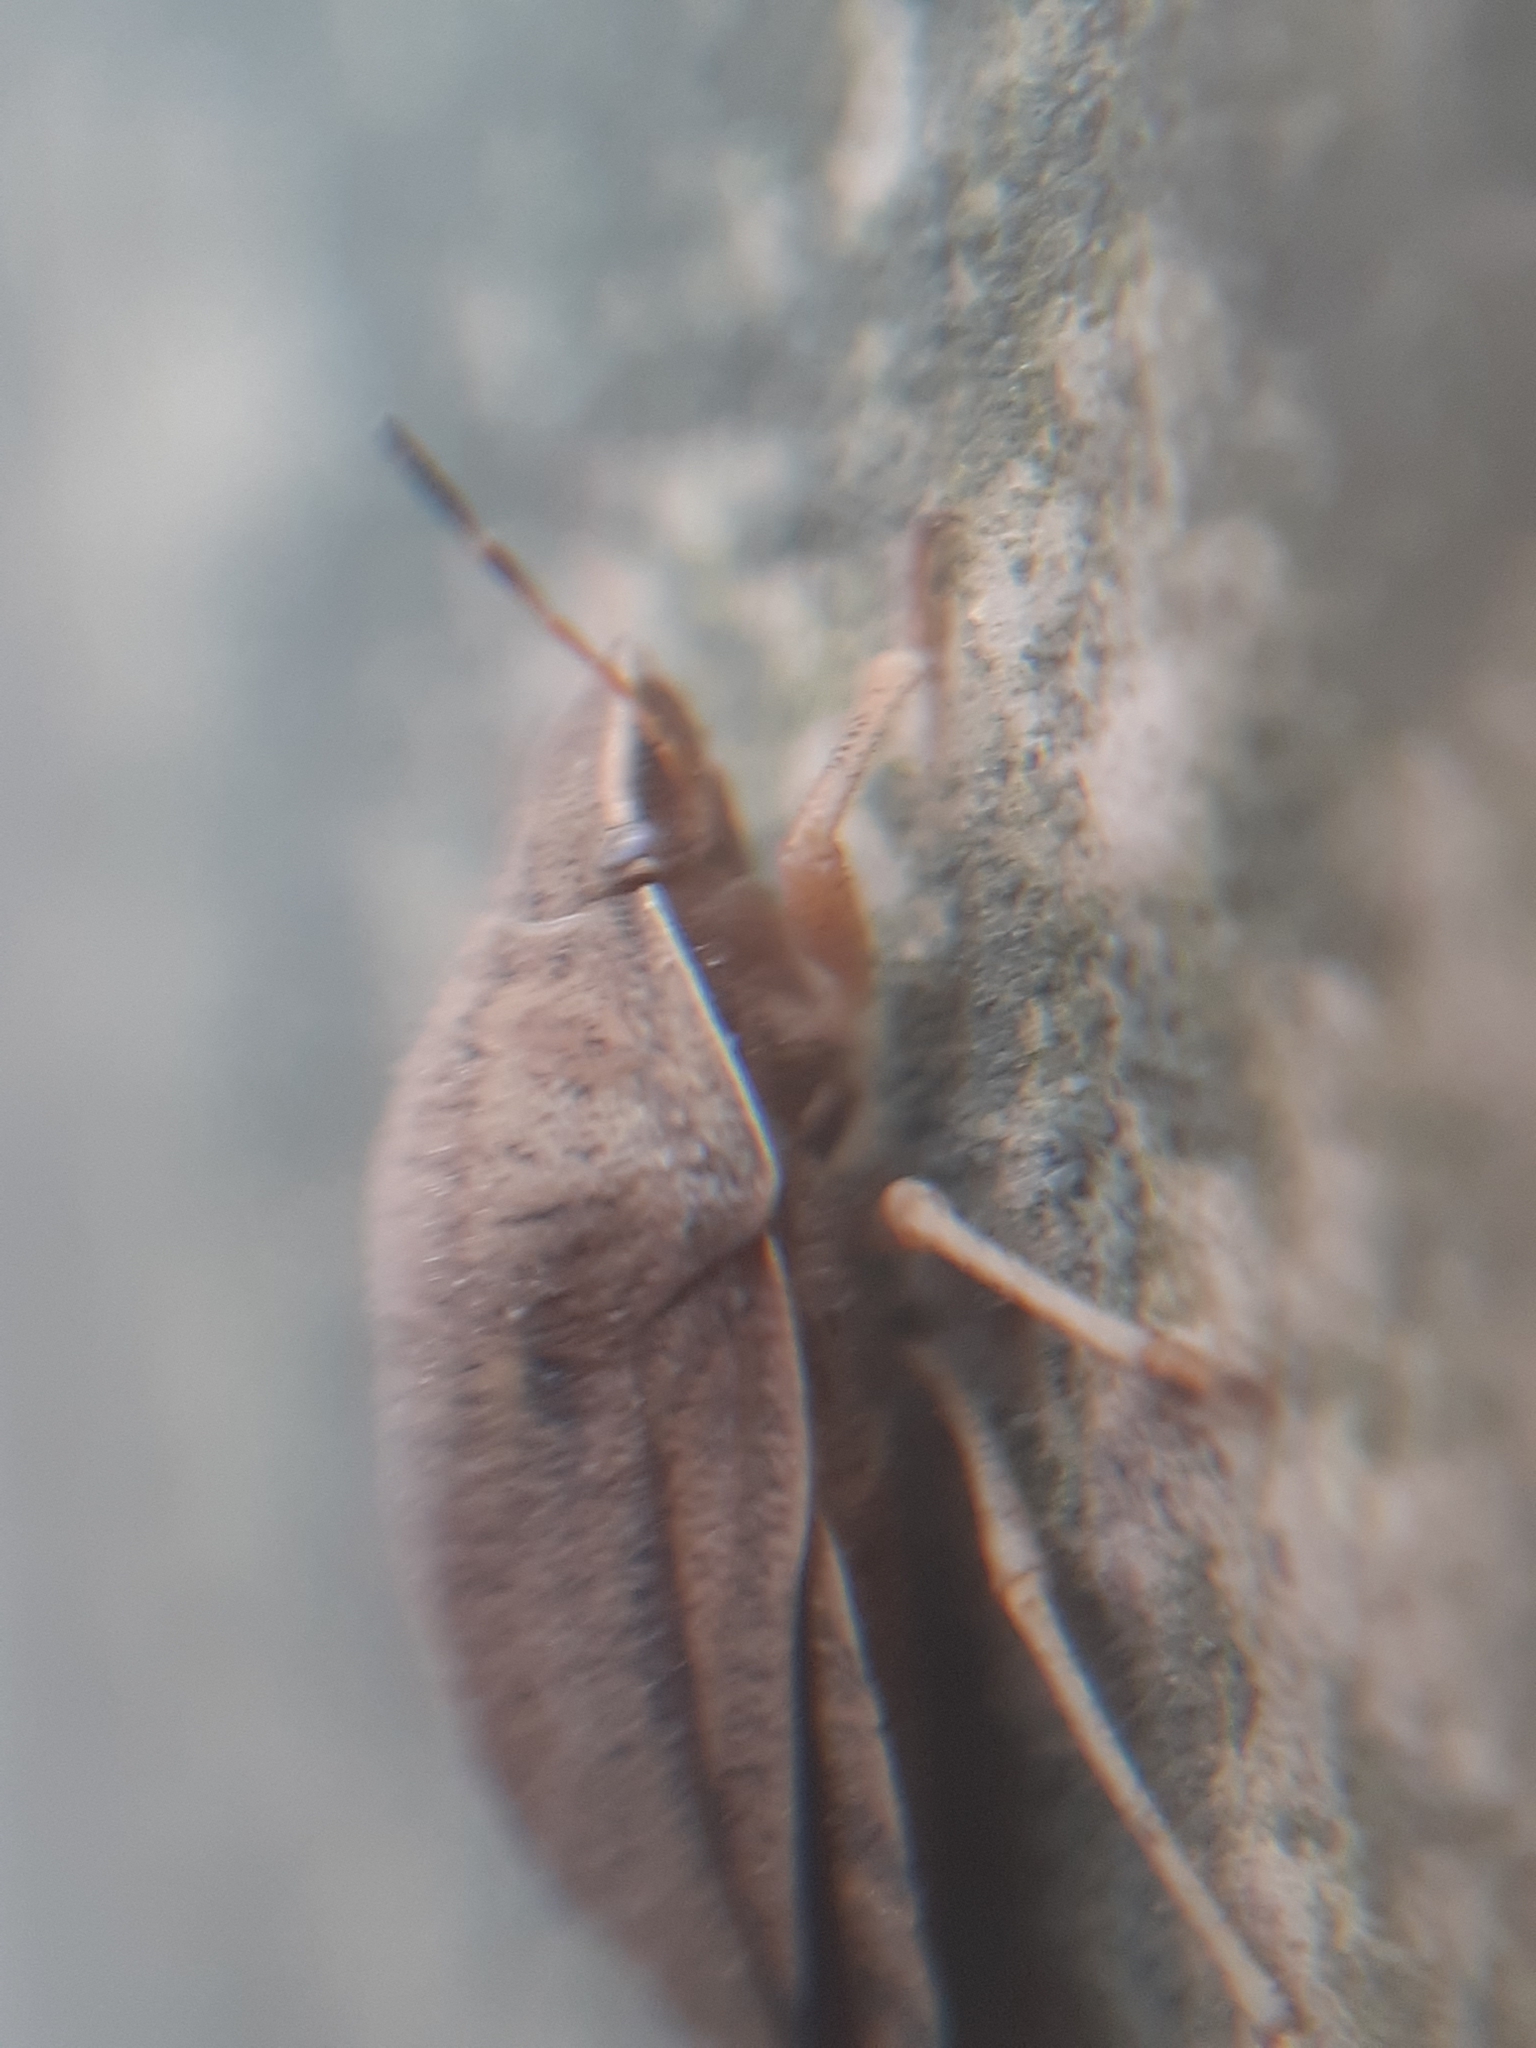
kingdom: Animalia
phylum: Arthropoda
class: Insecta
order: Hemiptera
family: Scutelleridae
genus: Eurygaster
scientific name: Eurygaster austriaca
